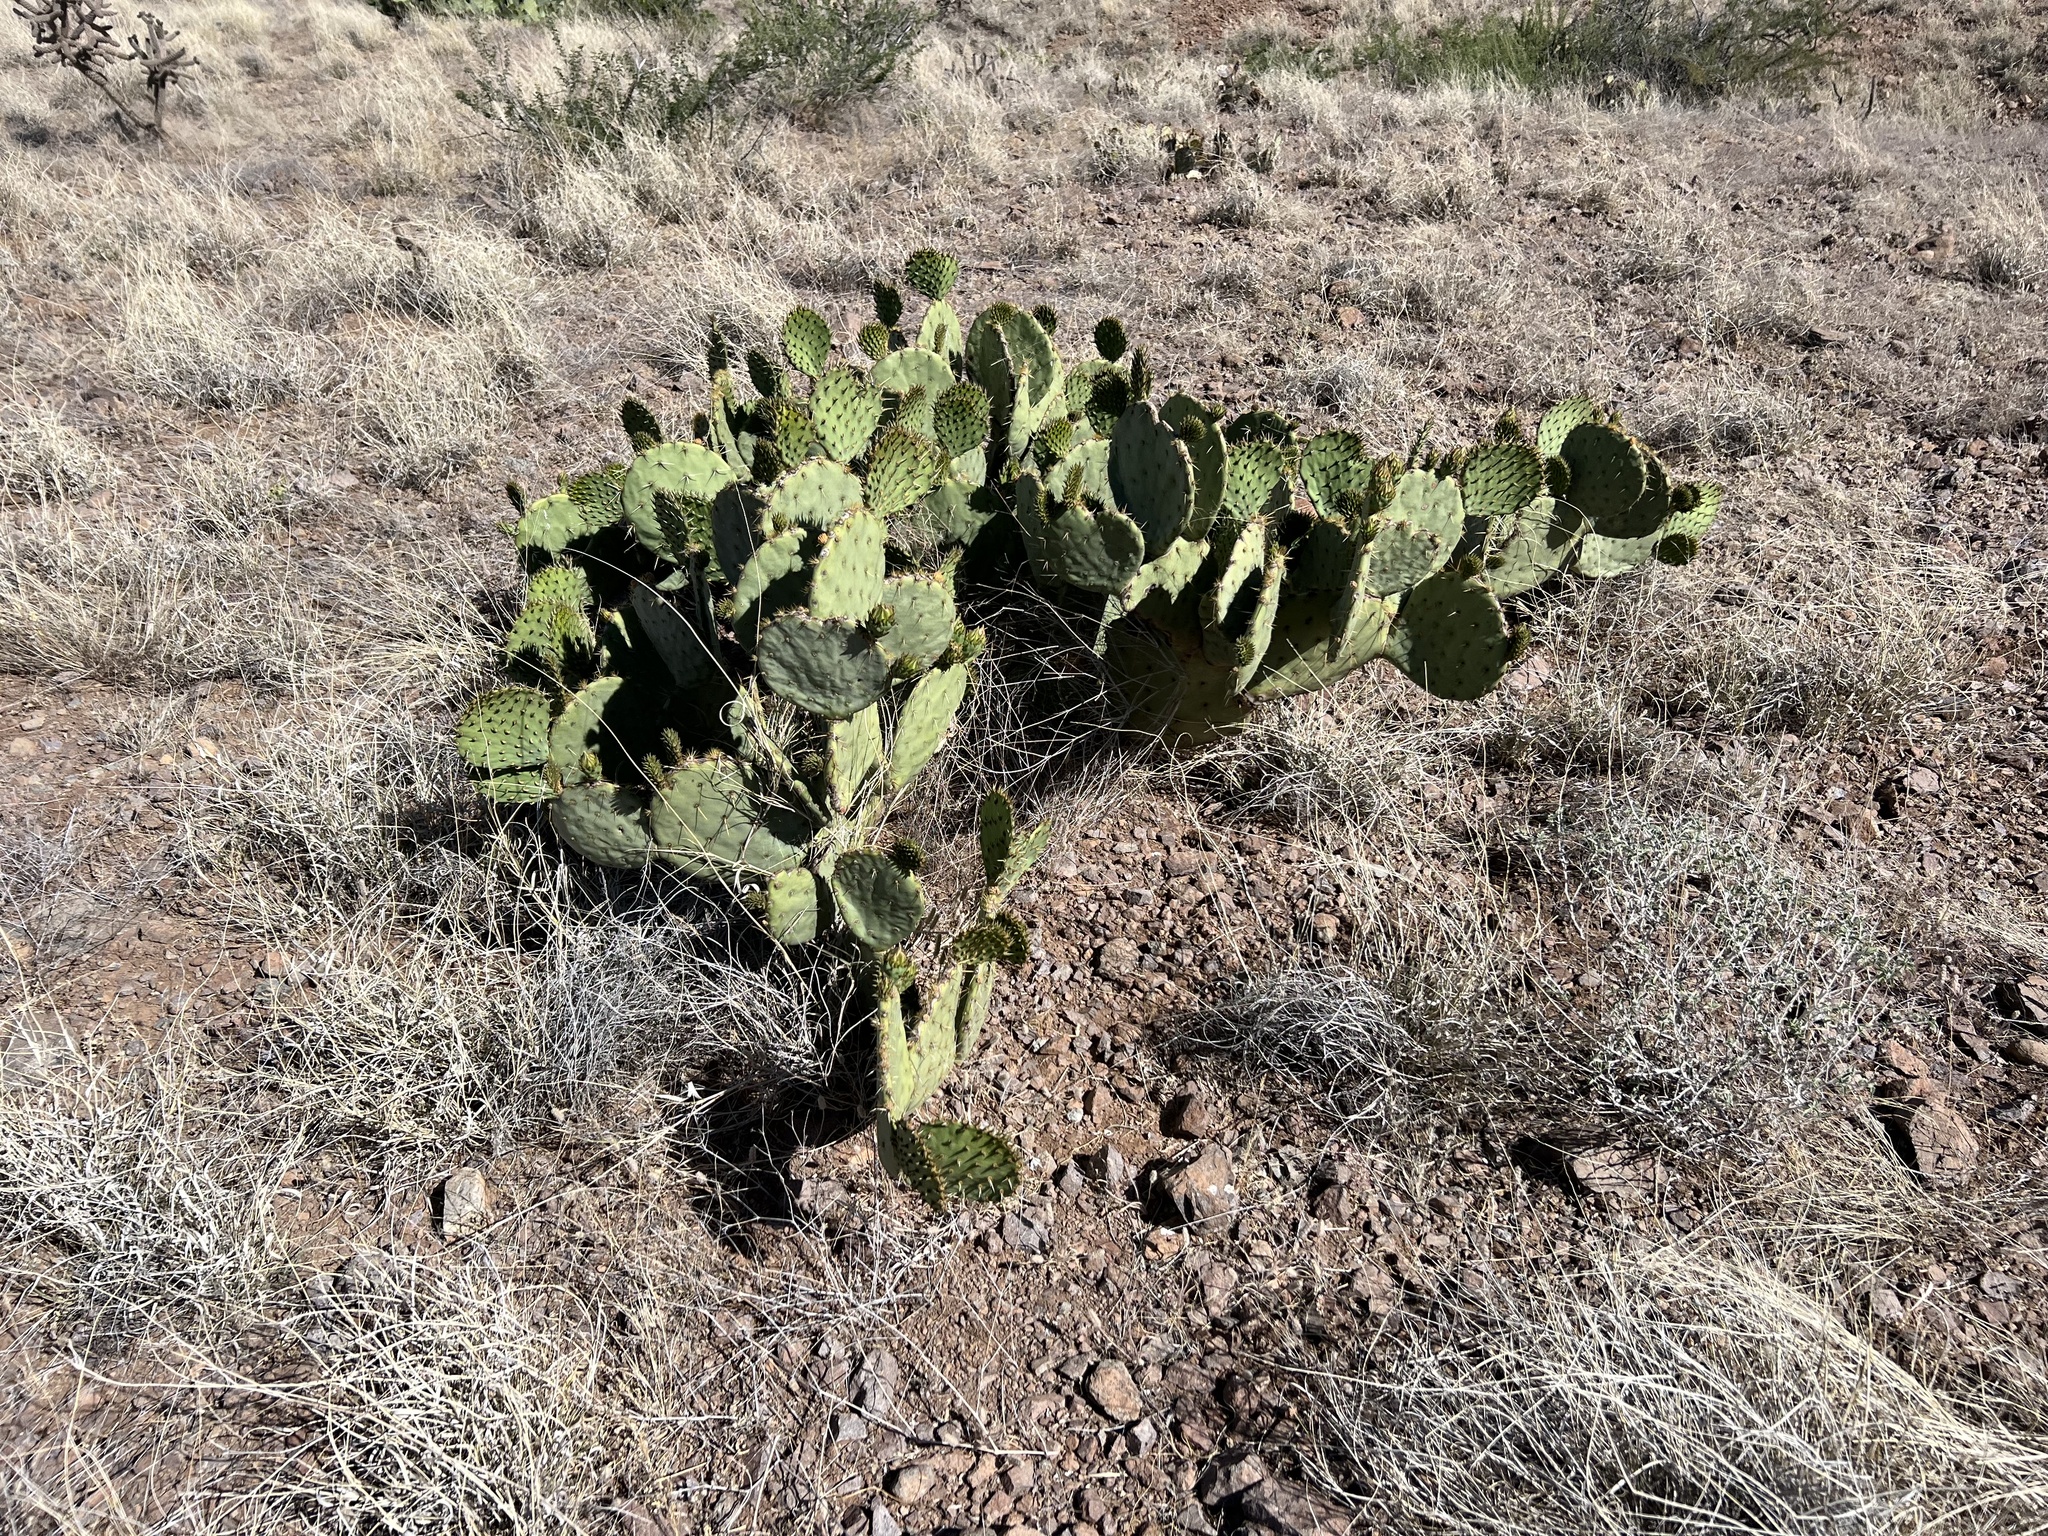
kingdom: Plantae
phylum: Tracheophyta
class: Magnoliopsida
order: Caryophyllales
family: Cactaceae
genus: Opuntia
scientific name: Opuntia engelmannii
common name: Cactus-apple
